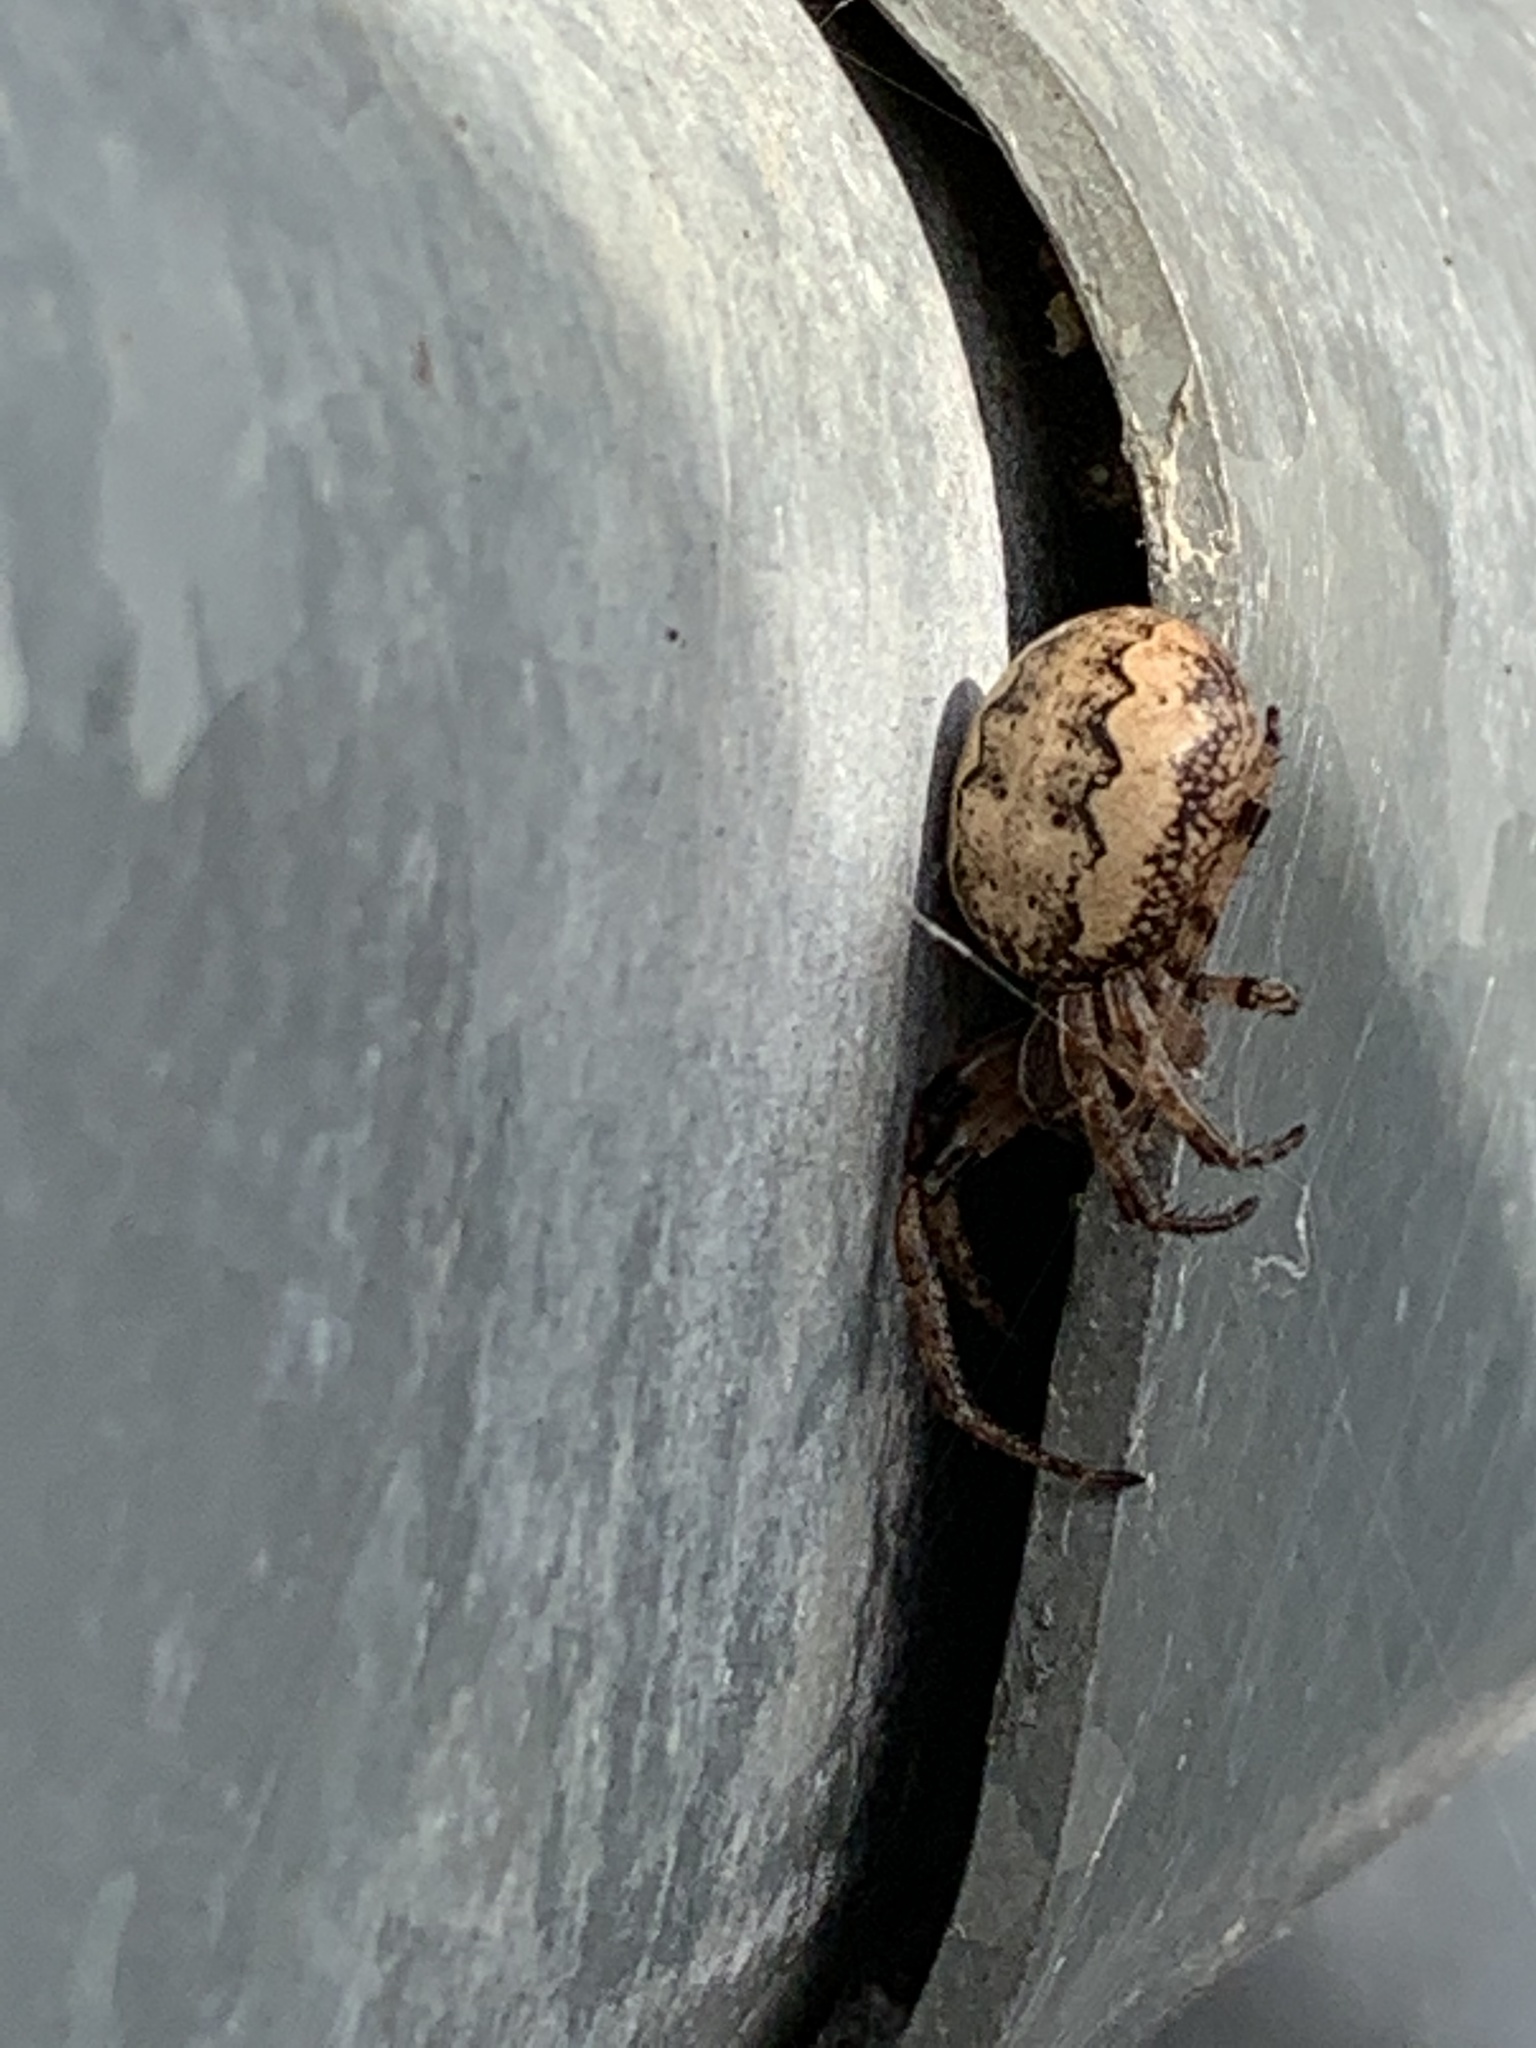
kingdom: Animalia
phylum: Arthropoda
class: Arachnida
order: Araneae
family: Araneidae
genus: Larinioides
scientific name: Larinioides cornutus
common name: Furrow orbweaver
